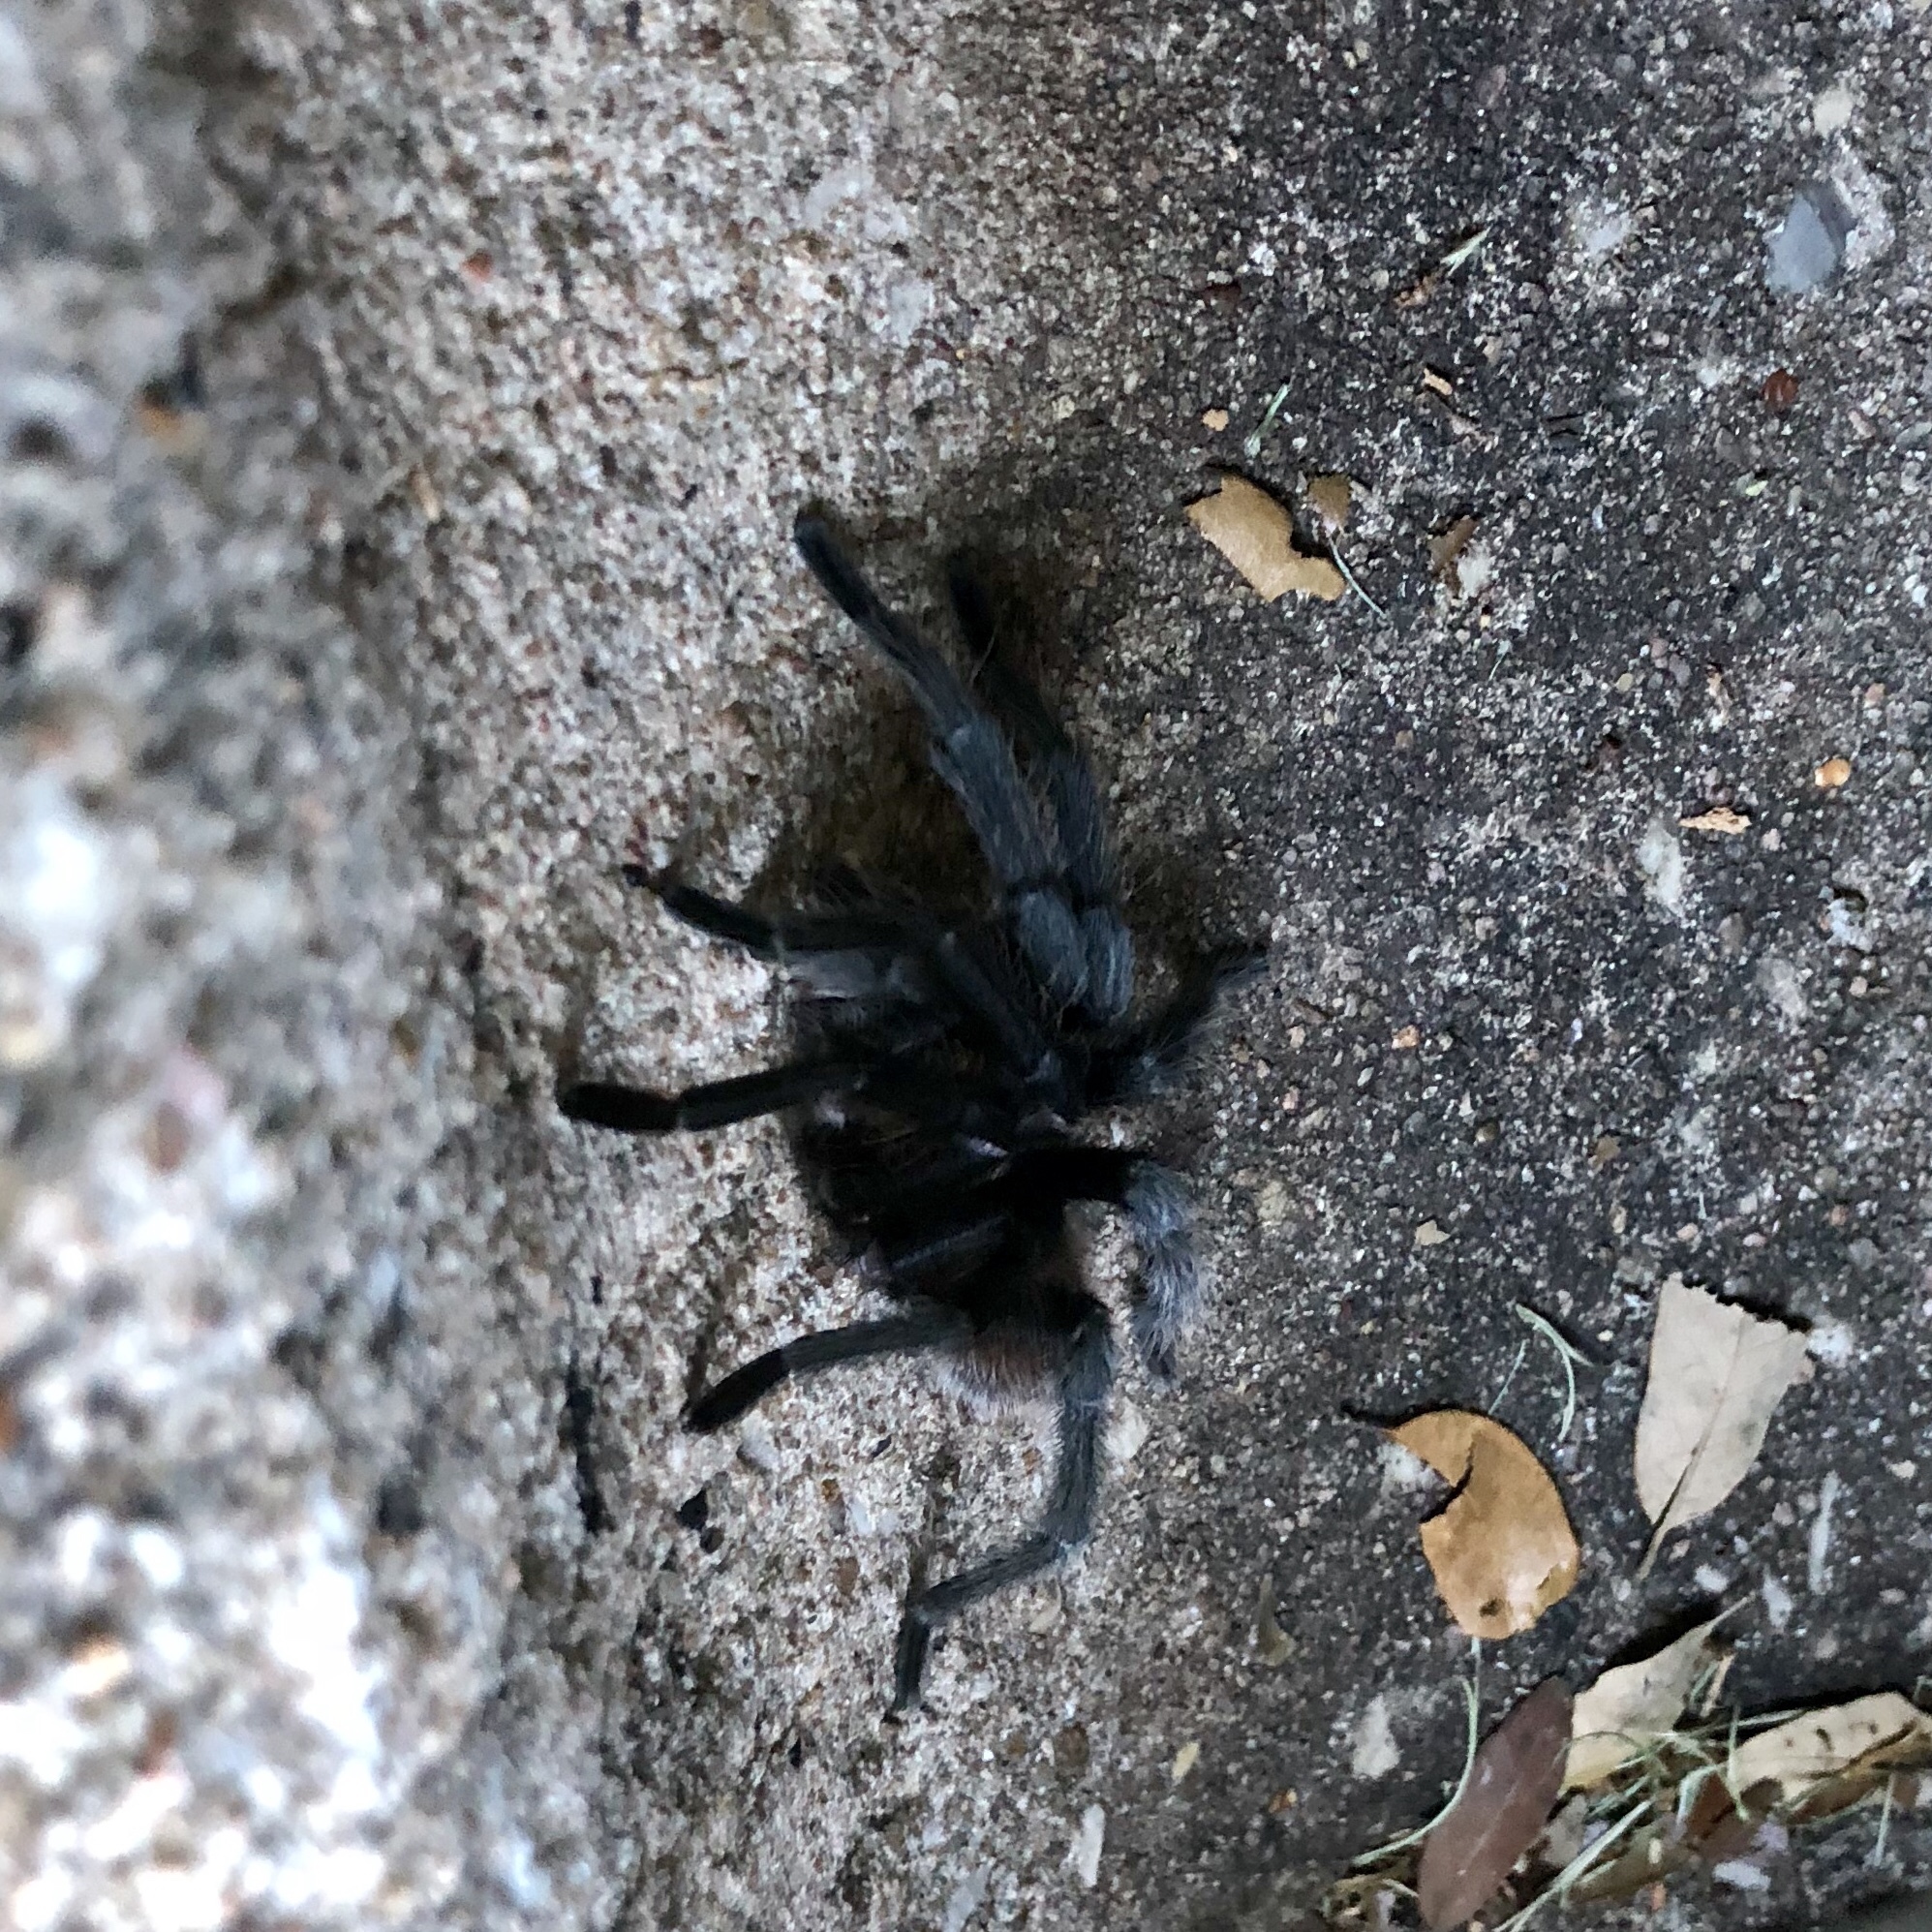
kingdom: Animalia
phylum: Arthropoda
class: Arachnida
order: Araneae
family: Theraphosidae
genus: Aphonopelma
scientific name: Aphonopelma hentzi
